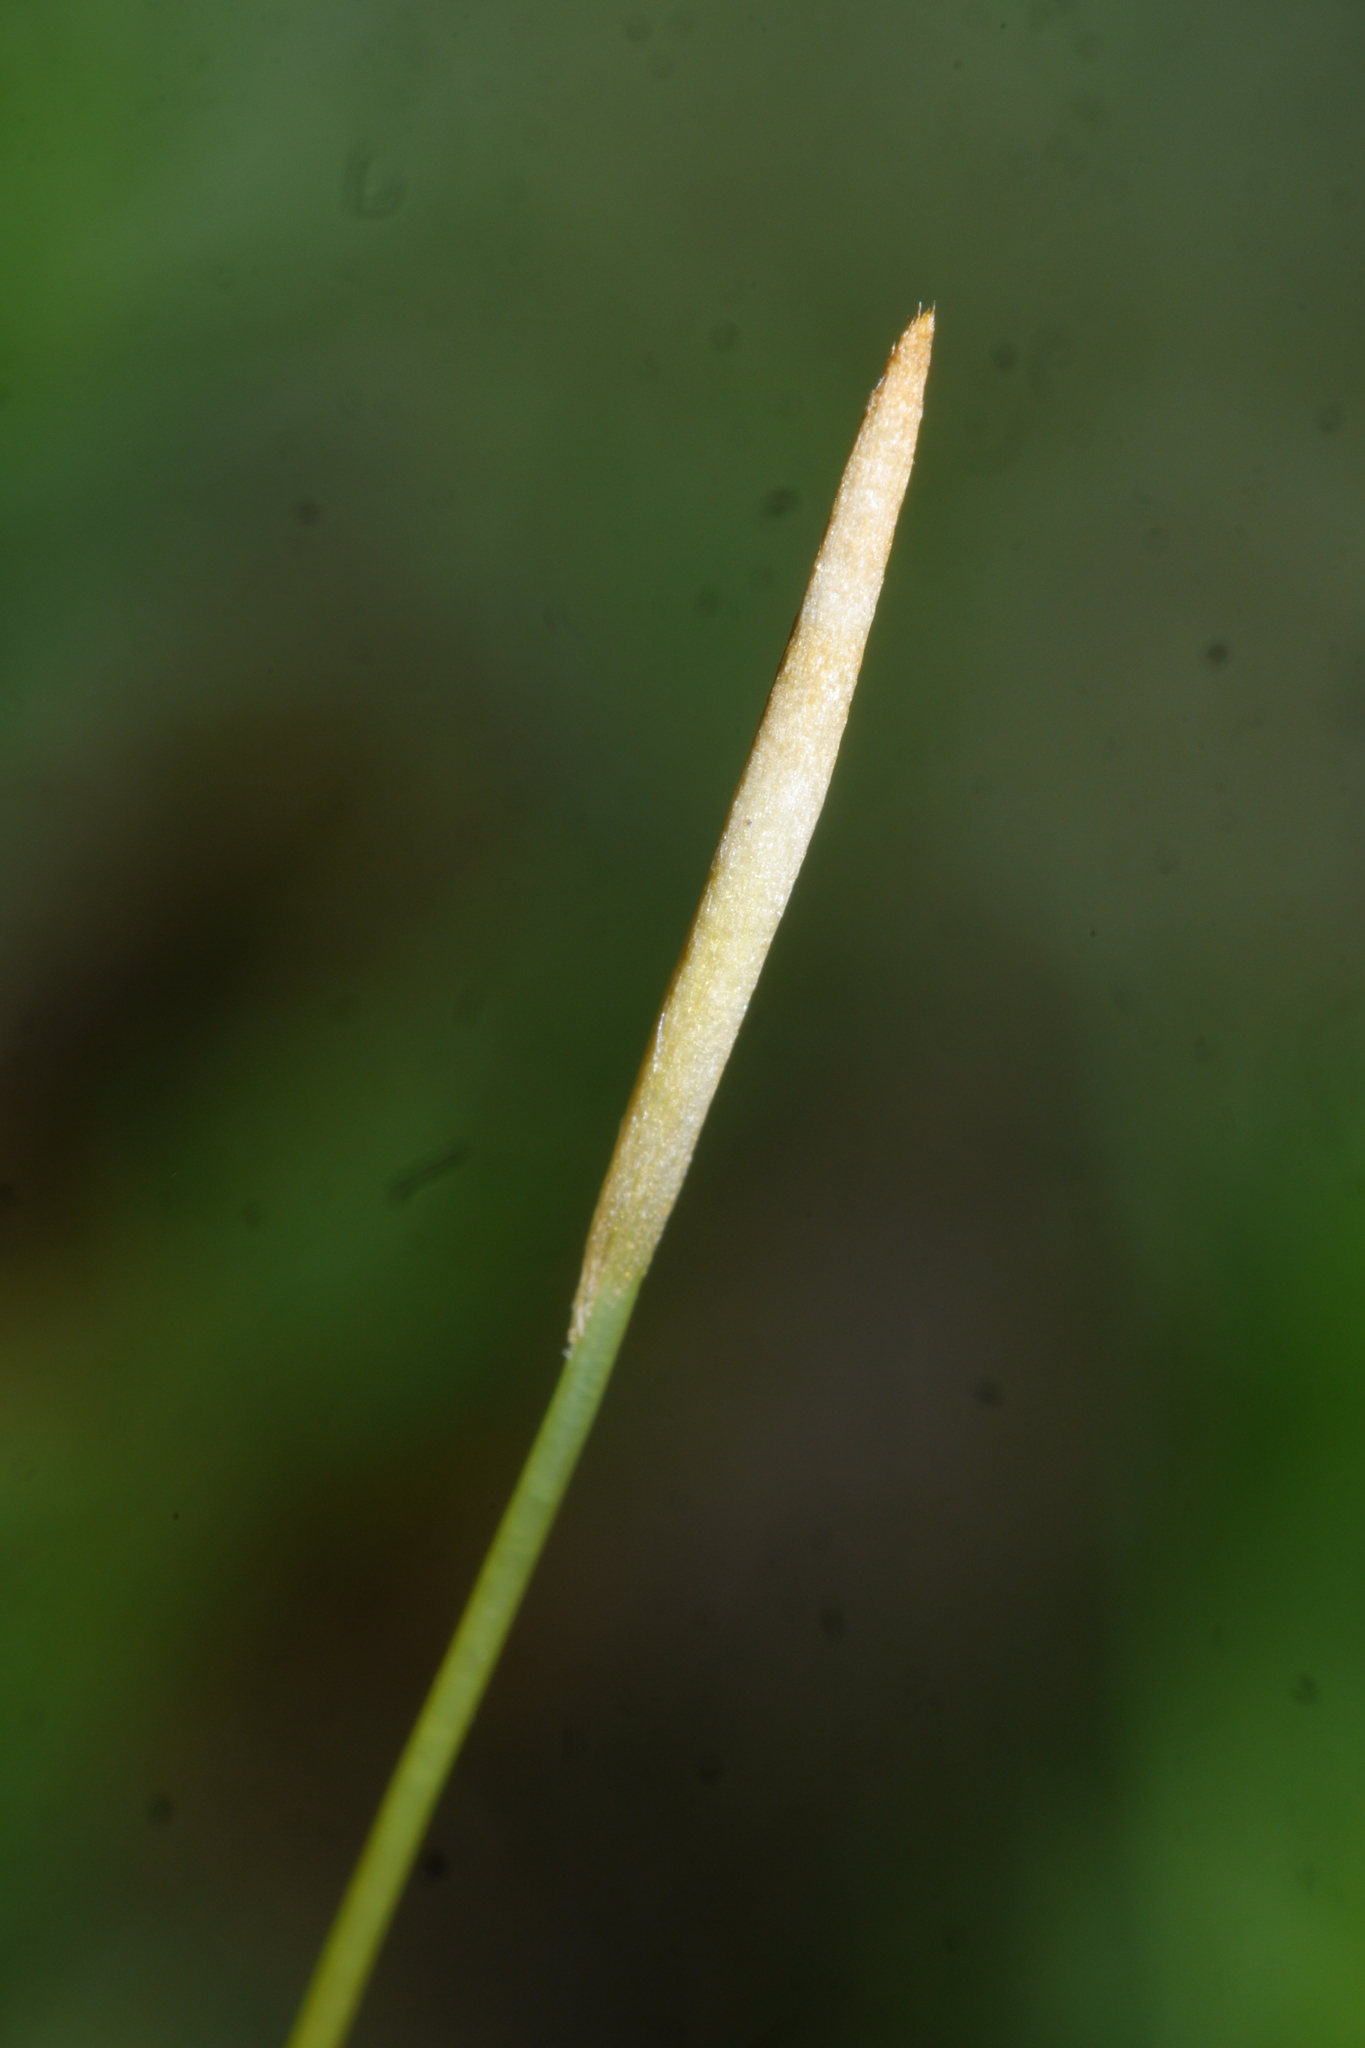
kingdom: Plantae
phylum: Bryophyta
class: Polytrichopsida
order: Polytrichales
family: Polytrichaceae
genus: Polytrichum
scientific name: Polytrichum formosum
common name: Bank haircap moss
